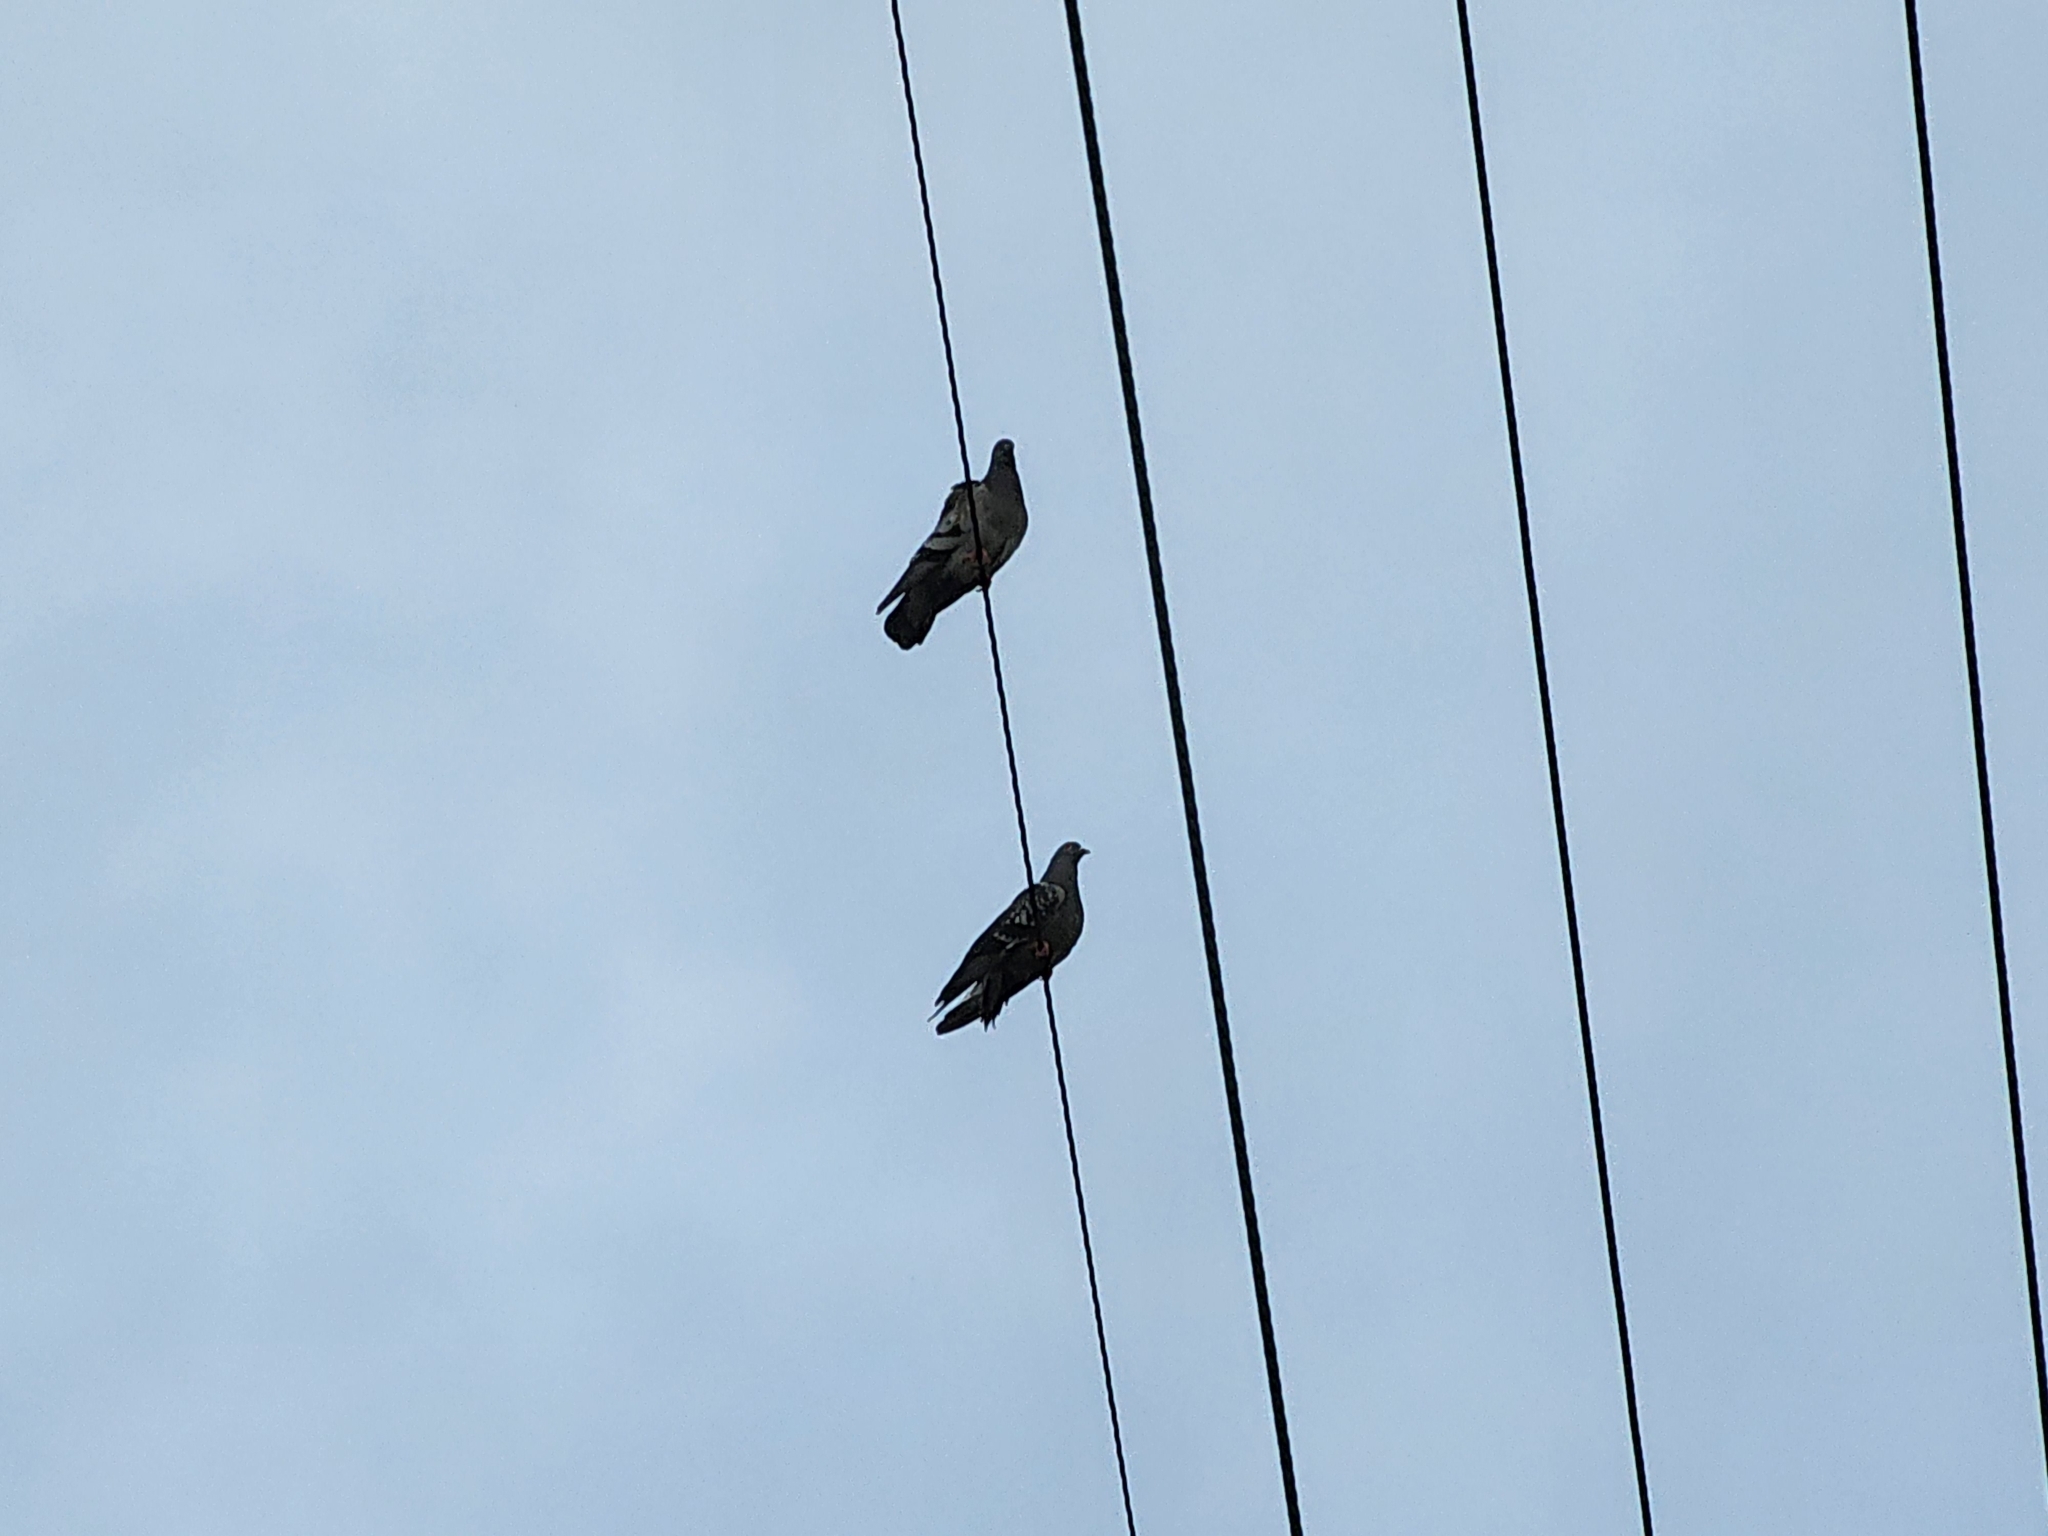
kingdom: Animalia
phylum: Chordata
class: Aves
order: Columbiformes
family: Columbidae
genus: Columba
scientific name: Columba livia
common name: Rock pigeon
